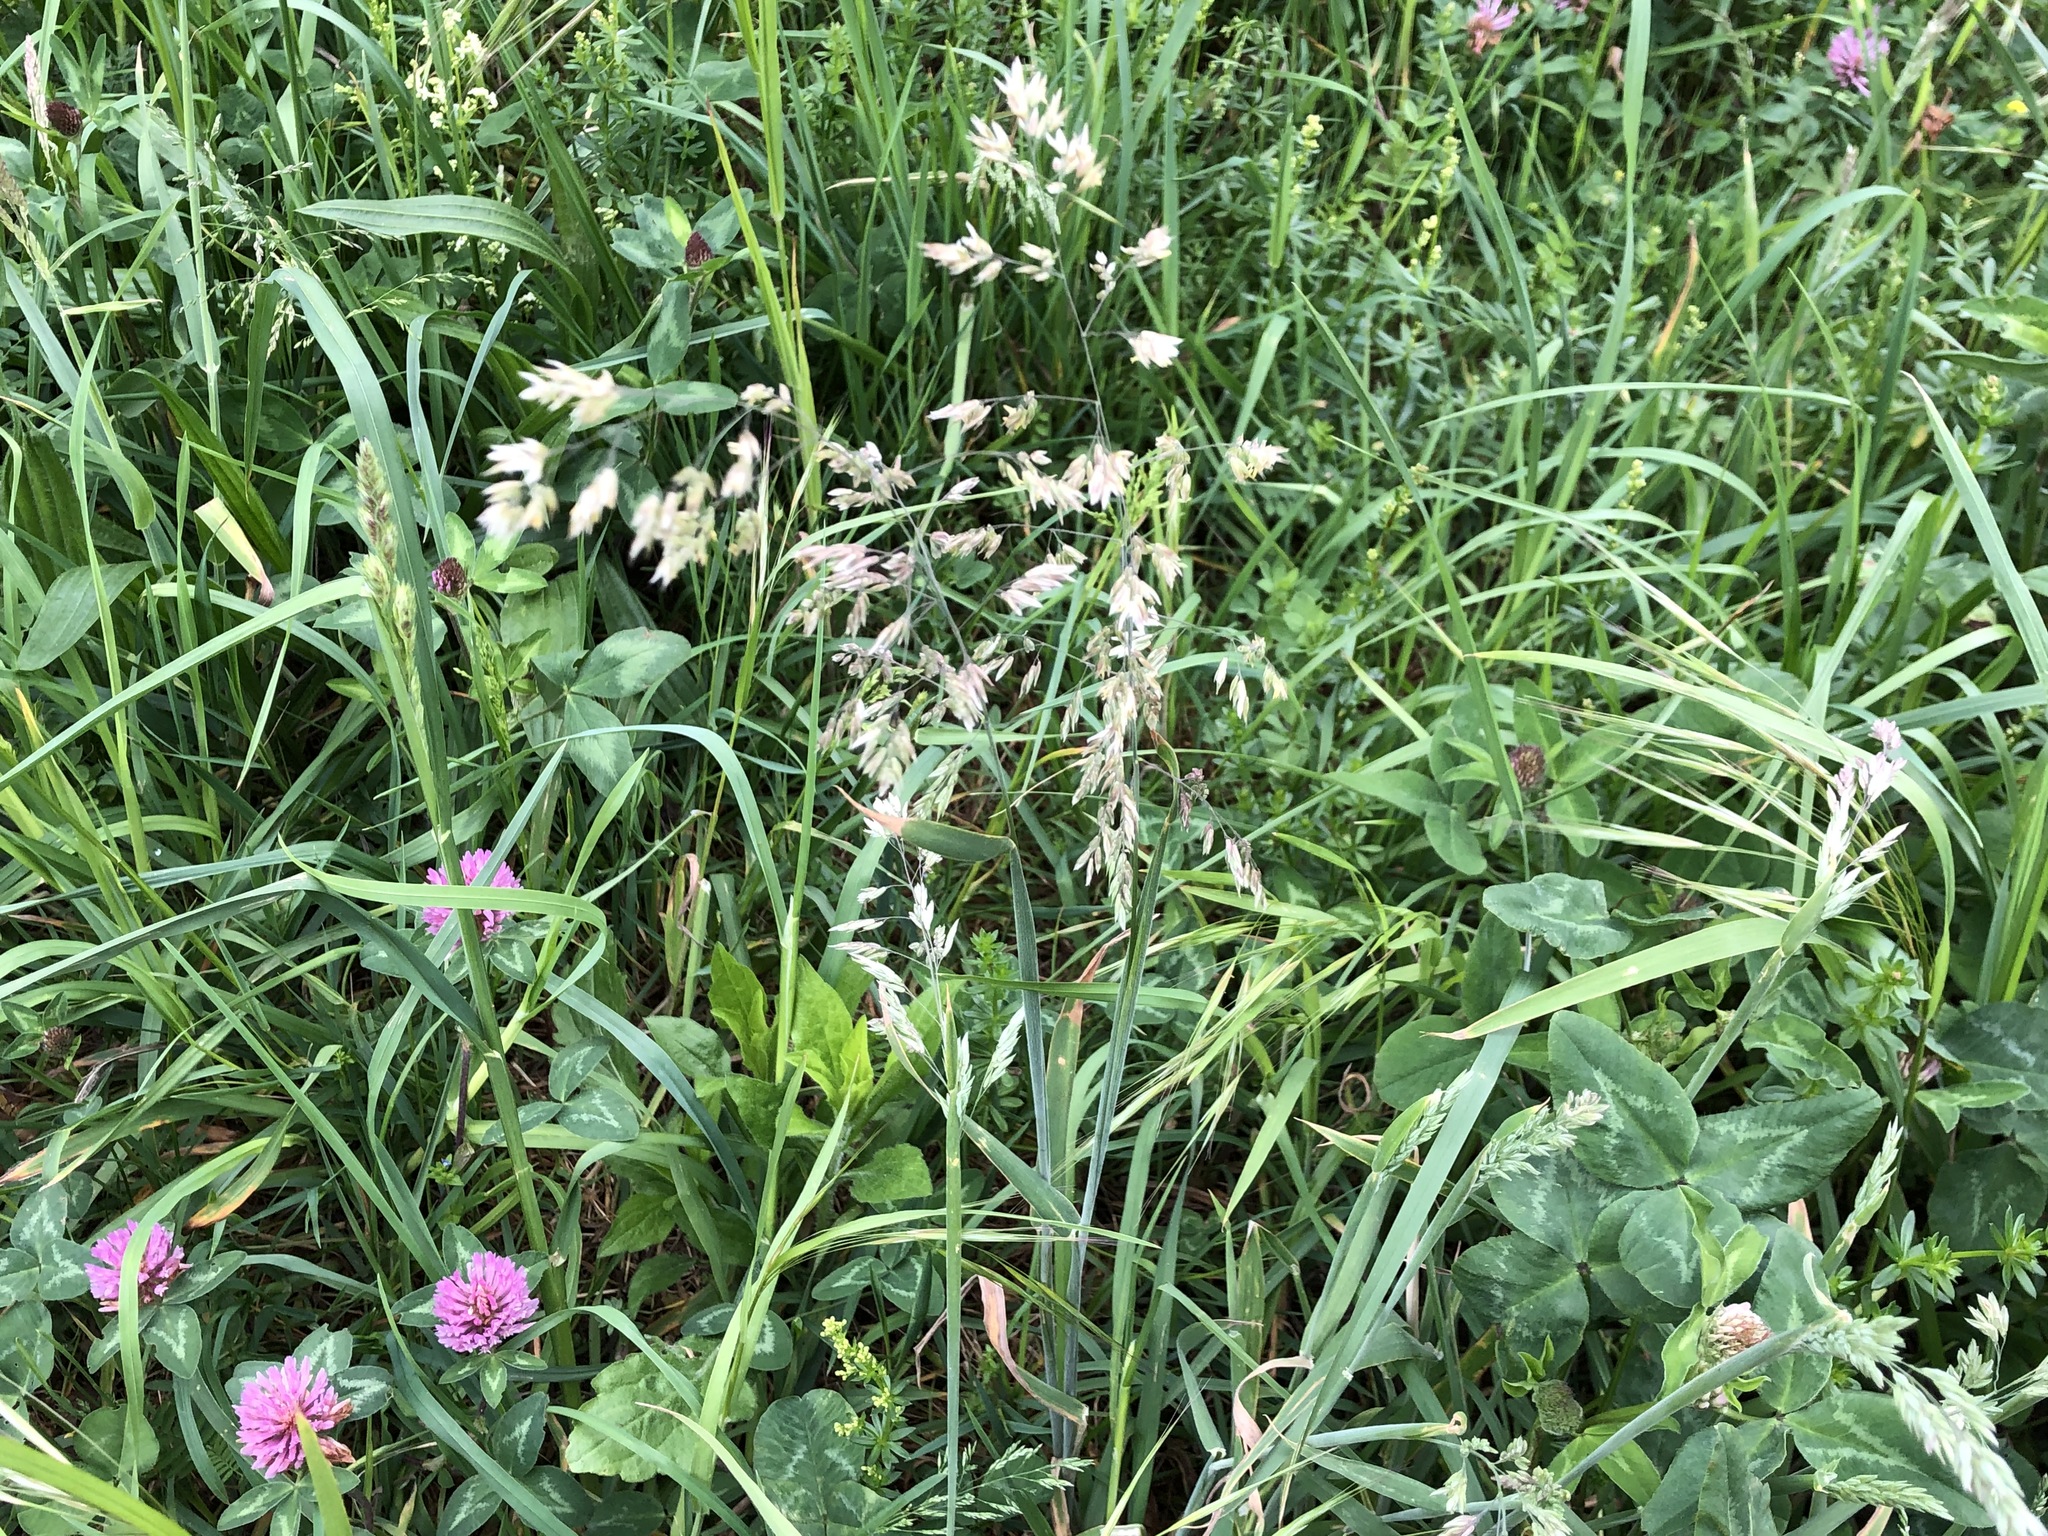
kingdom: Plantae
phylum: Tracheophyta
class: Liliopsida
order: Poales
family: Poaceae
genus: Holcus
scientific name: Holcus lanatus
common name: Yorkshire-fog
